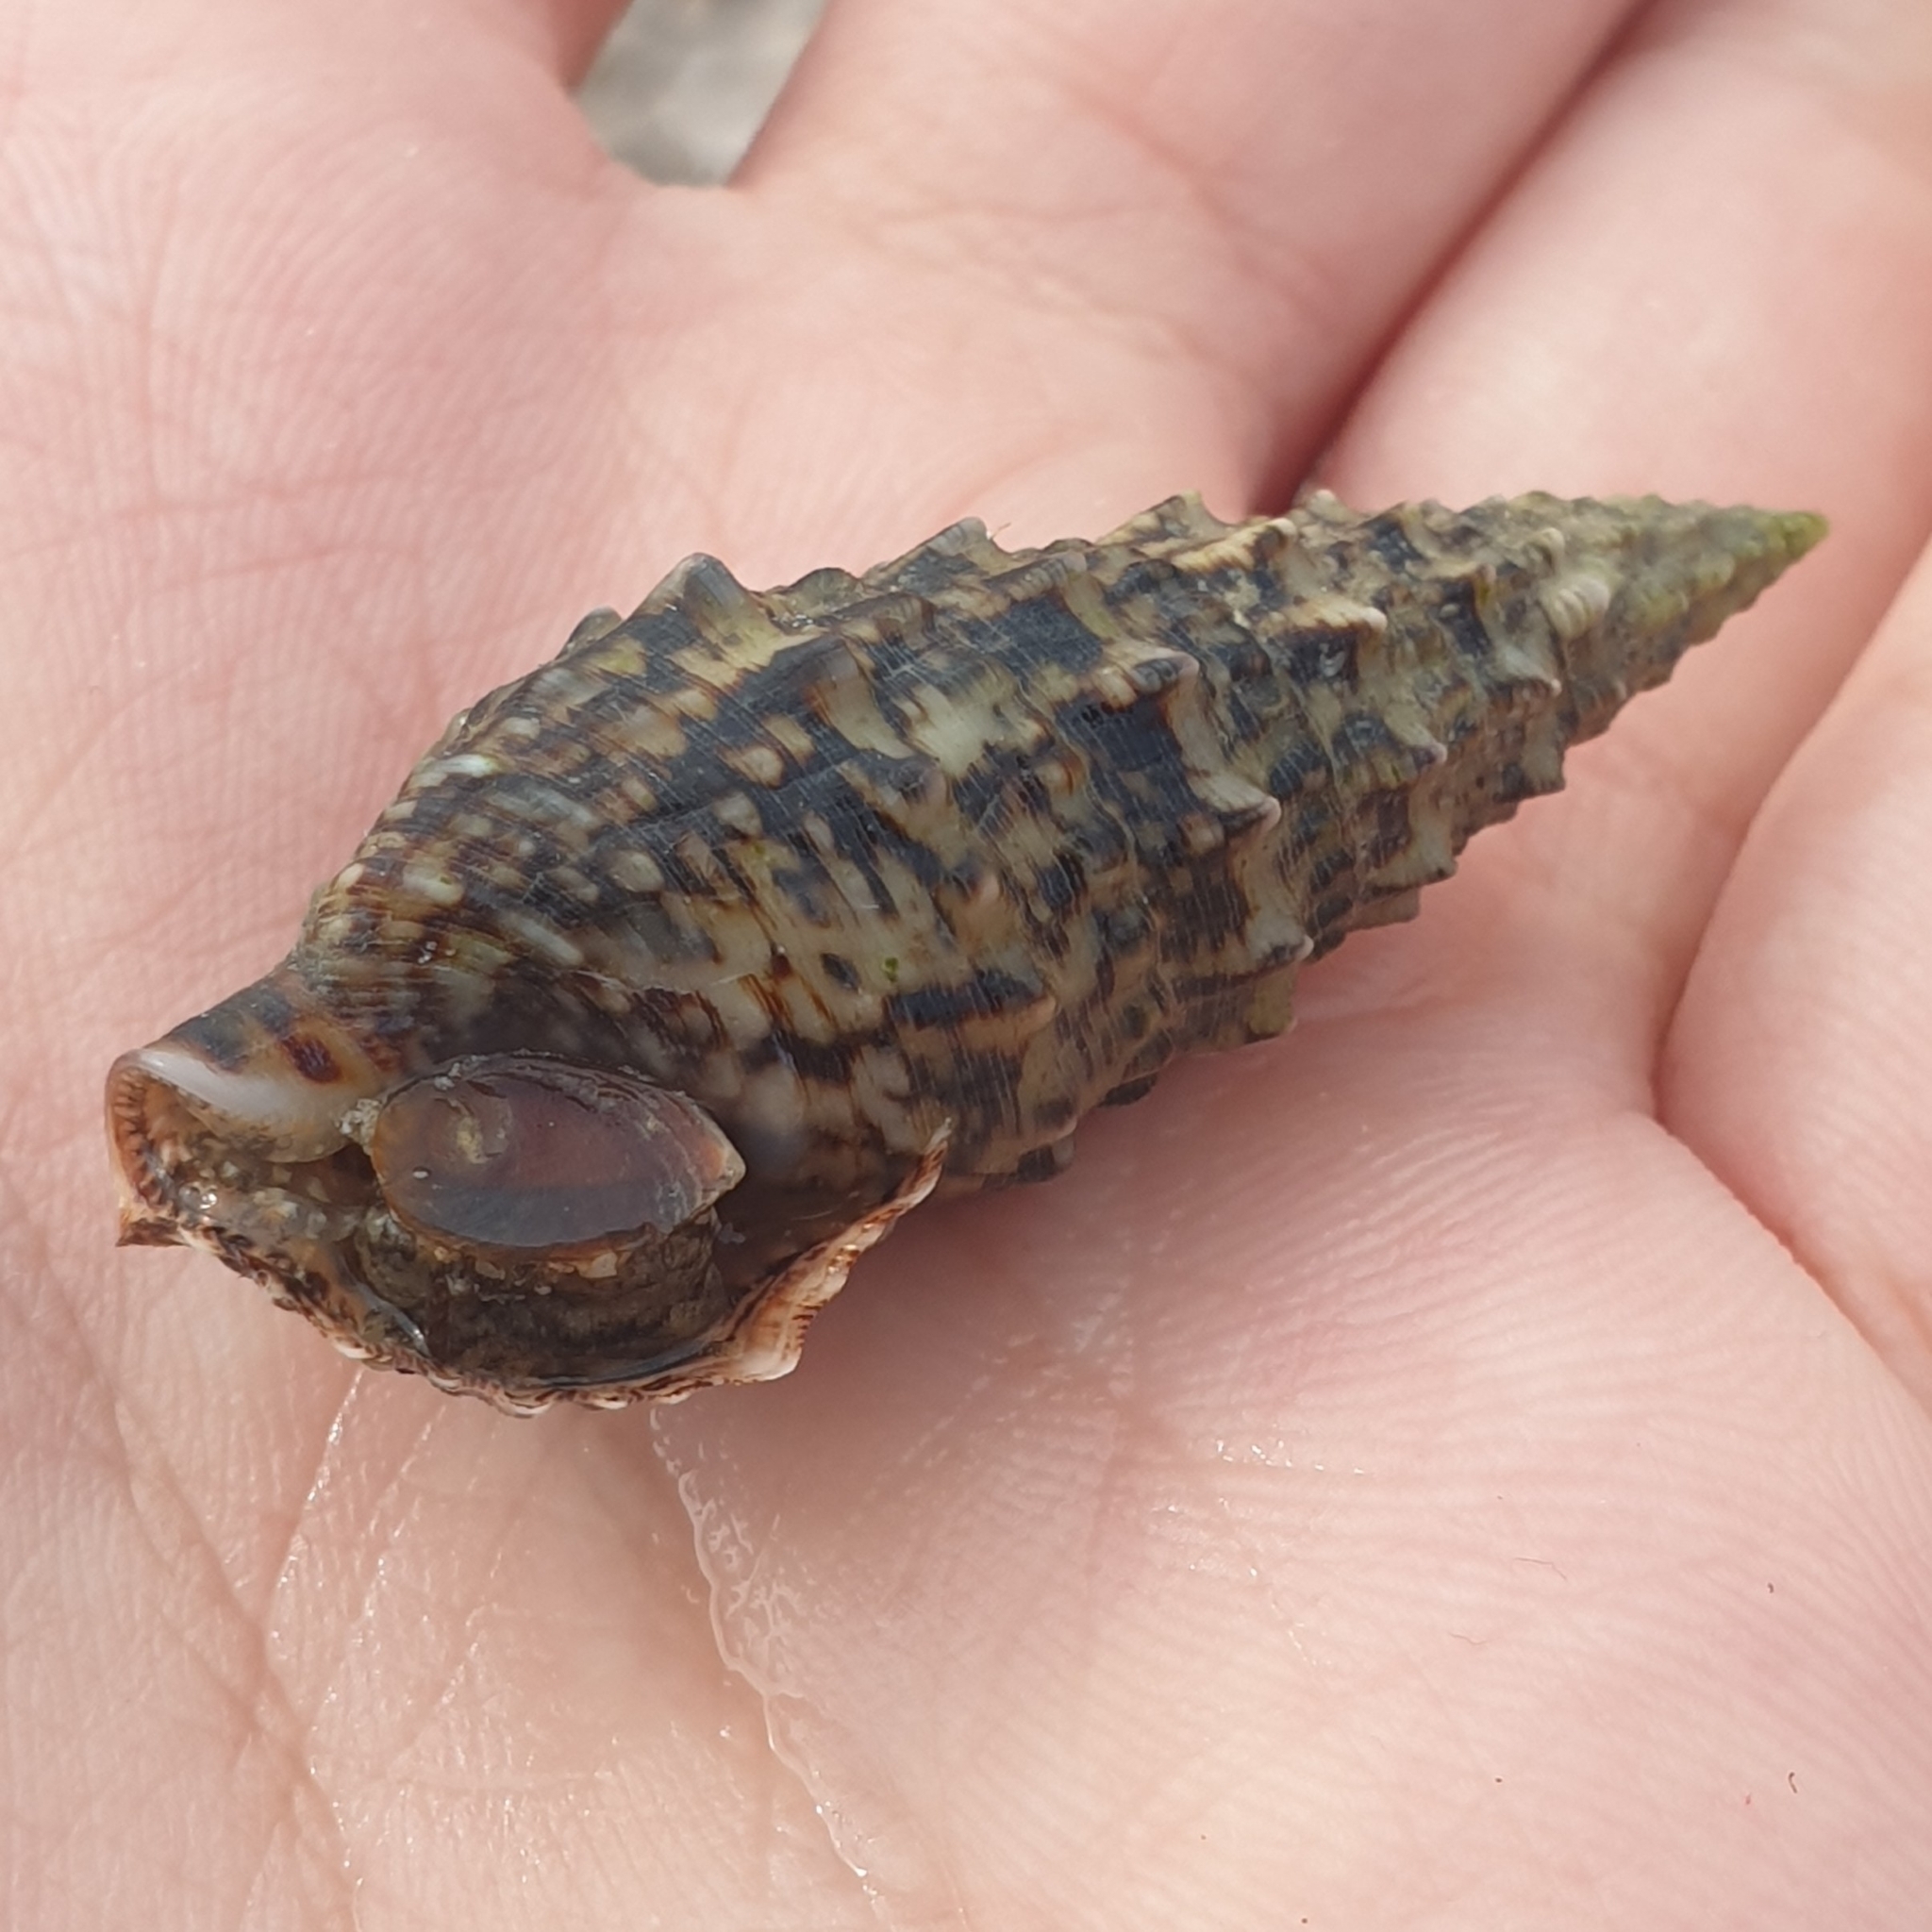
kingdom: Animalia
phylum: Mollusca
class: Gastropoda
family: Cerithiidae
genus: Cerithium
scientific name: Cerithium vulgatum
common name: European cerith
